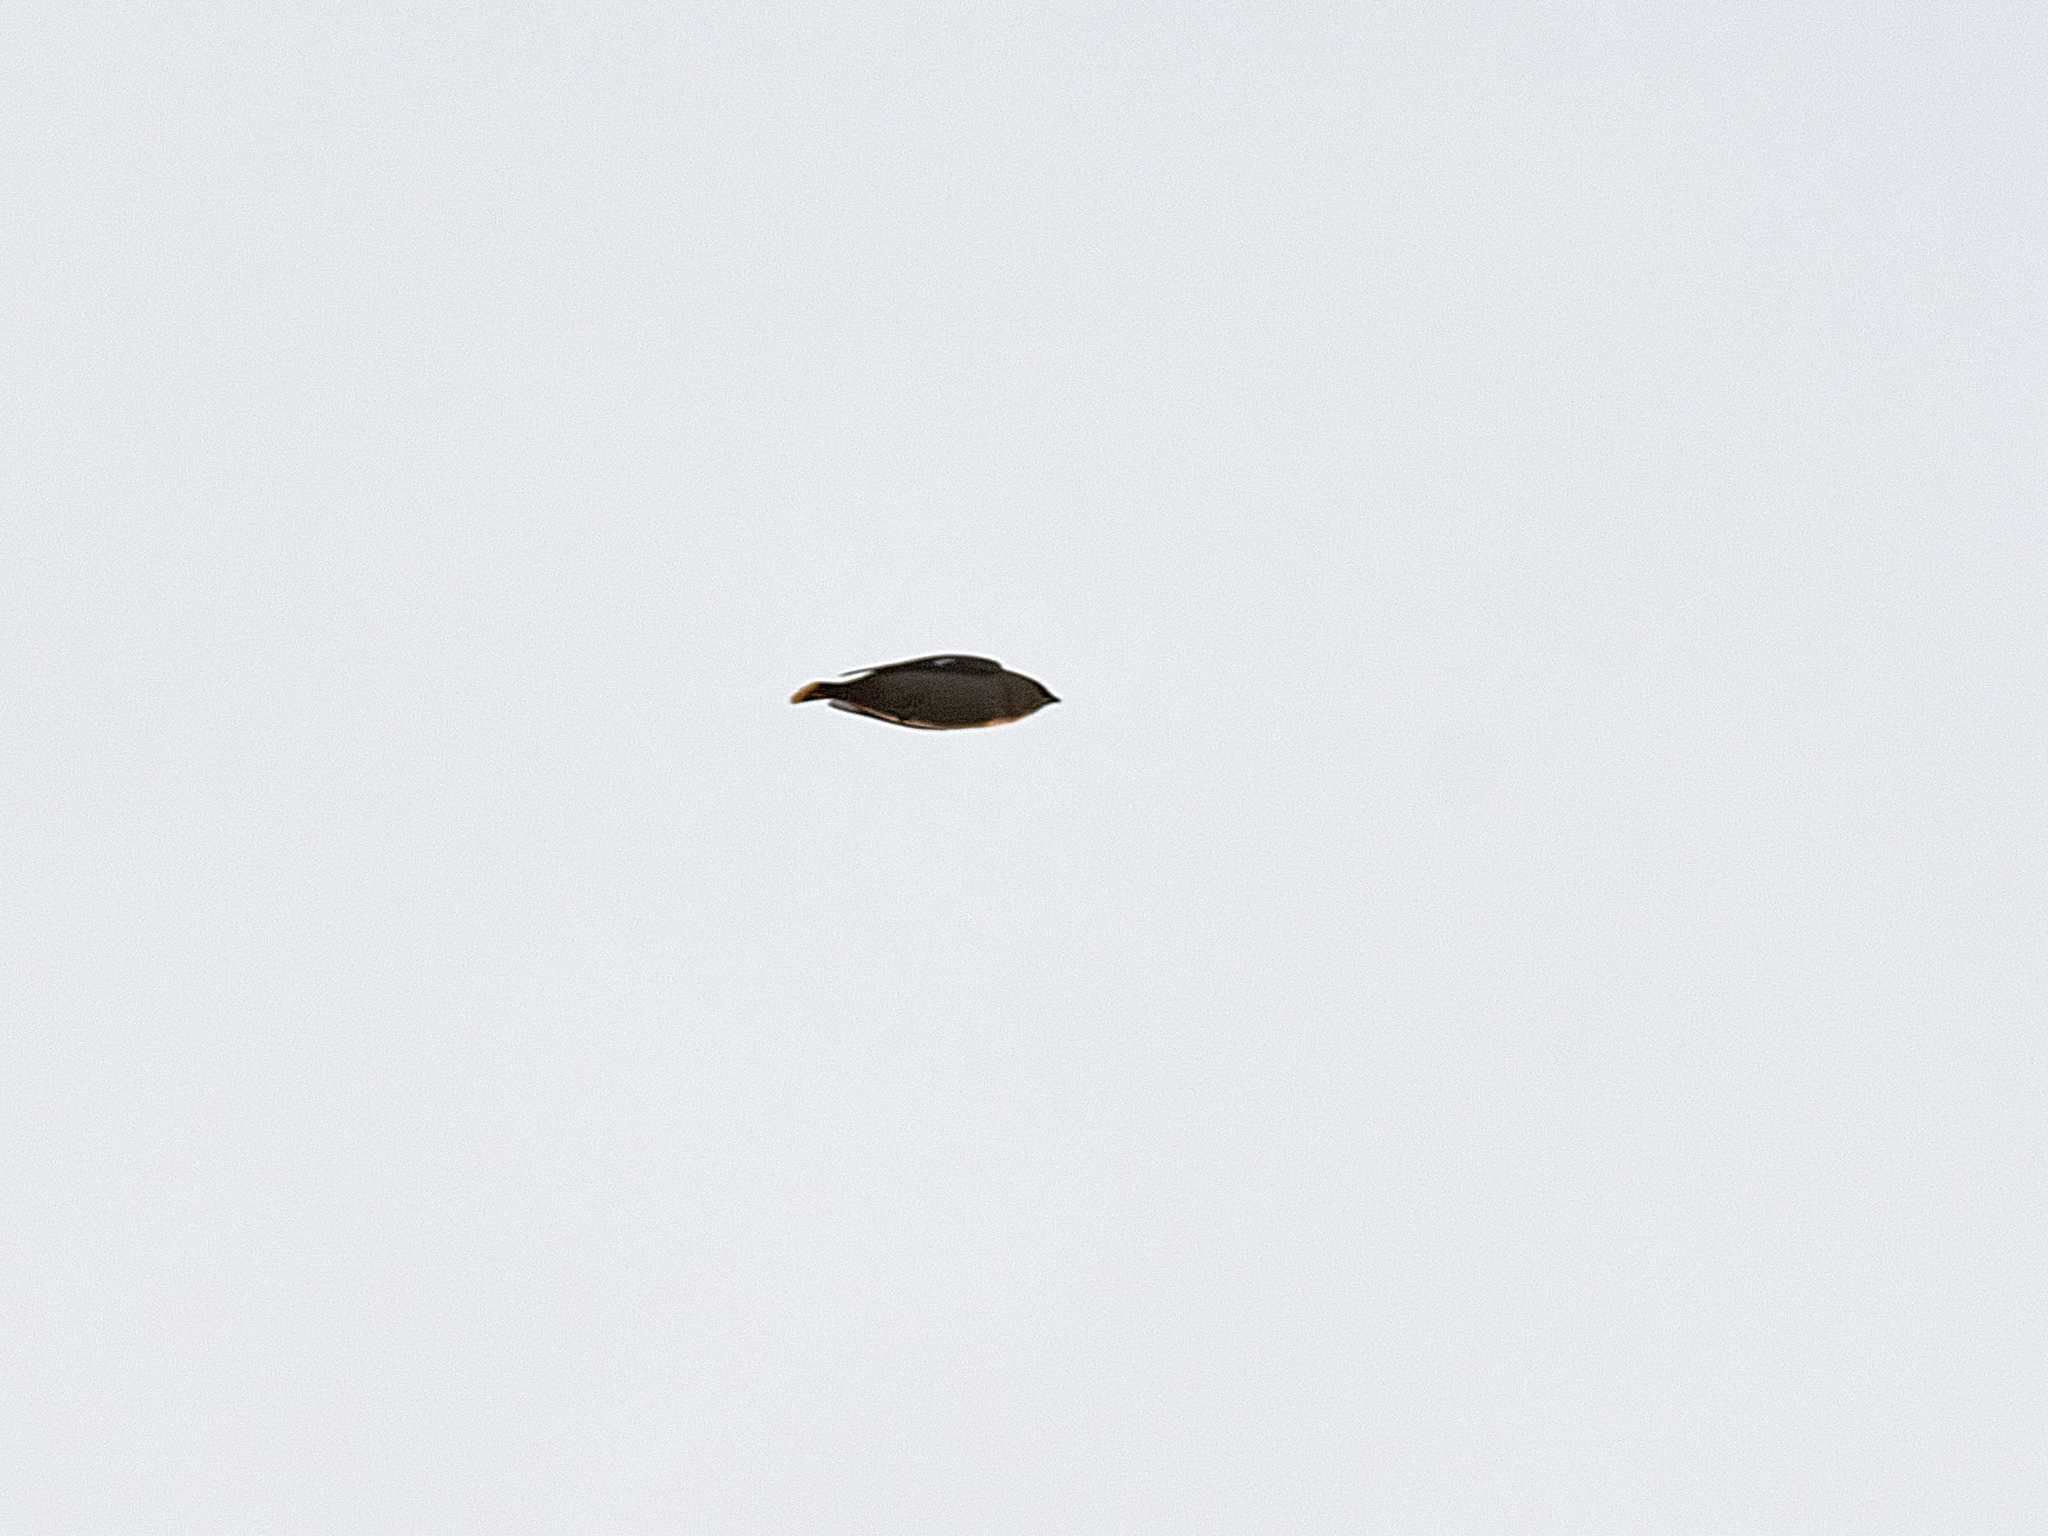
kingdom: Animalia
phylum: Chordata
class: Aves
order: Passeriformes
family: Bombycillidae
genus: Bombycilla
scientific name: Bombycilla garrulus
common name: Bohemian waxwing
